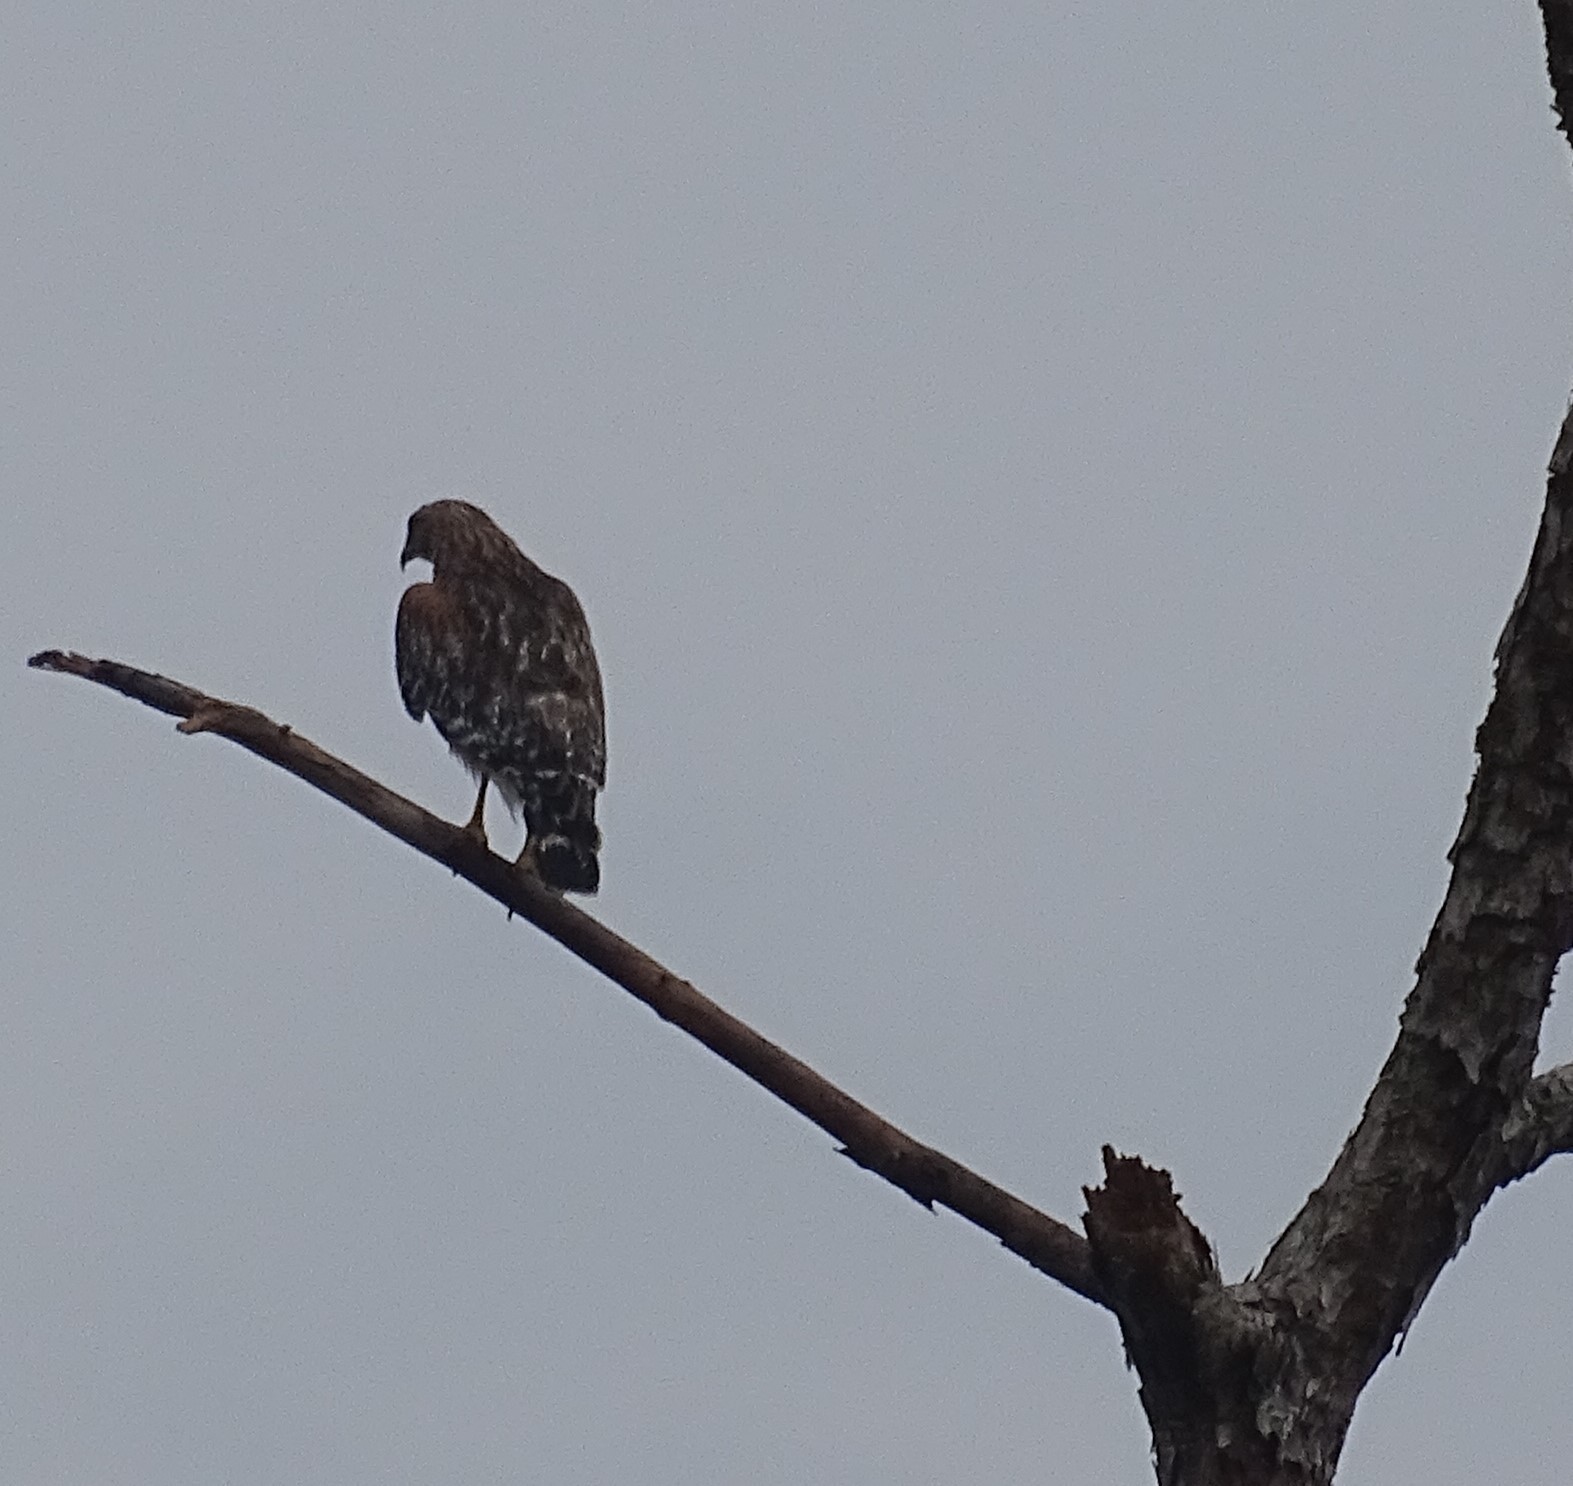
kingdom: Animalia
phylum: Chordata
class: Aves
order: Accipitriformes
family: Accipitridae
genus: Buteo
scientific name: Buteo lineatus
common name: Red-shouldered hawk
